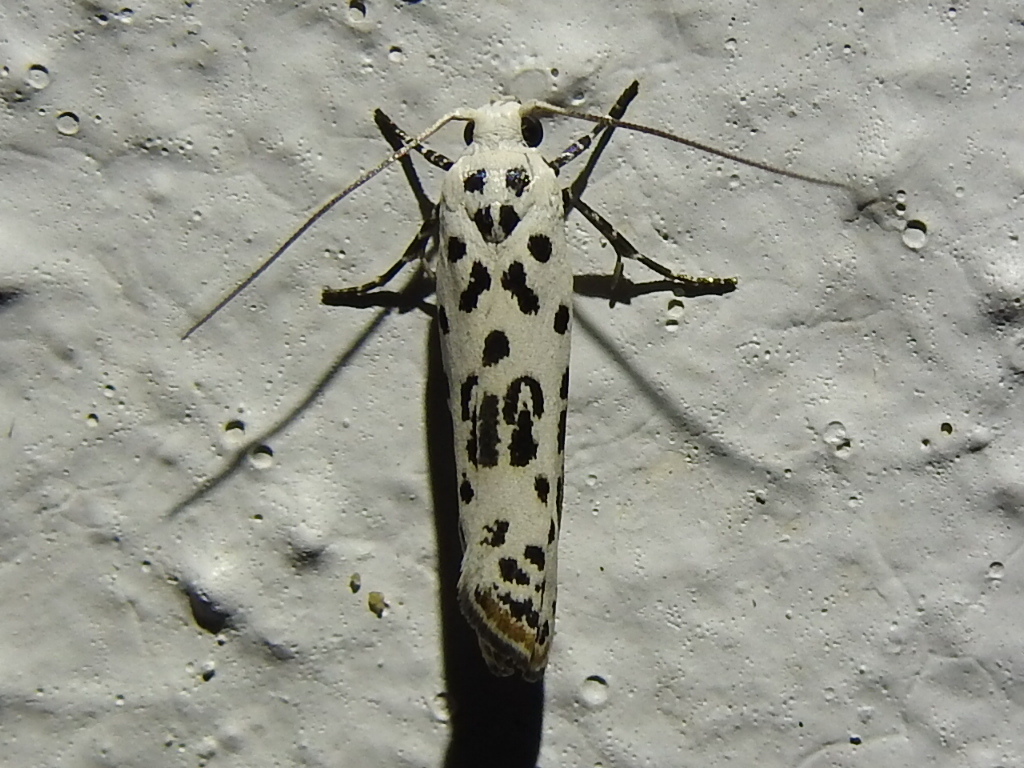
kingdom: Animalia
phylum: Arthropoda
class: Insecta
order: Lepidoptera
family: Ethmiidae
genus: Ethmia
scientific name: Ethmia bittenella
